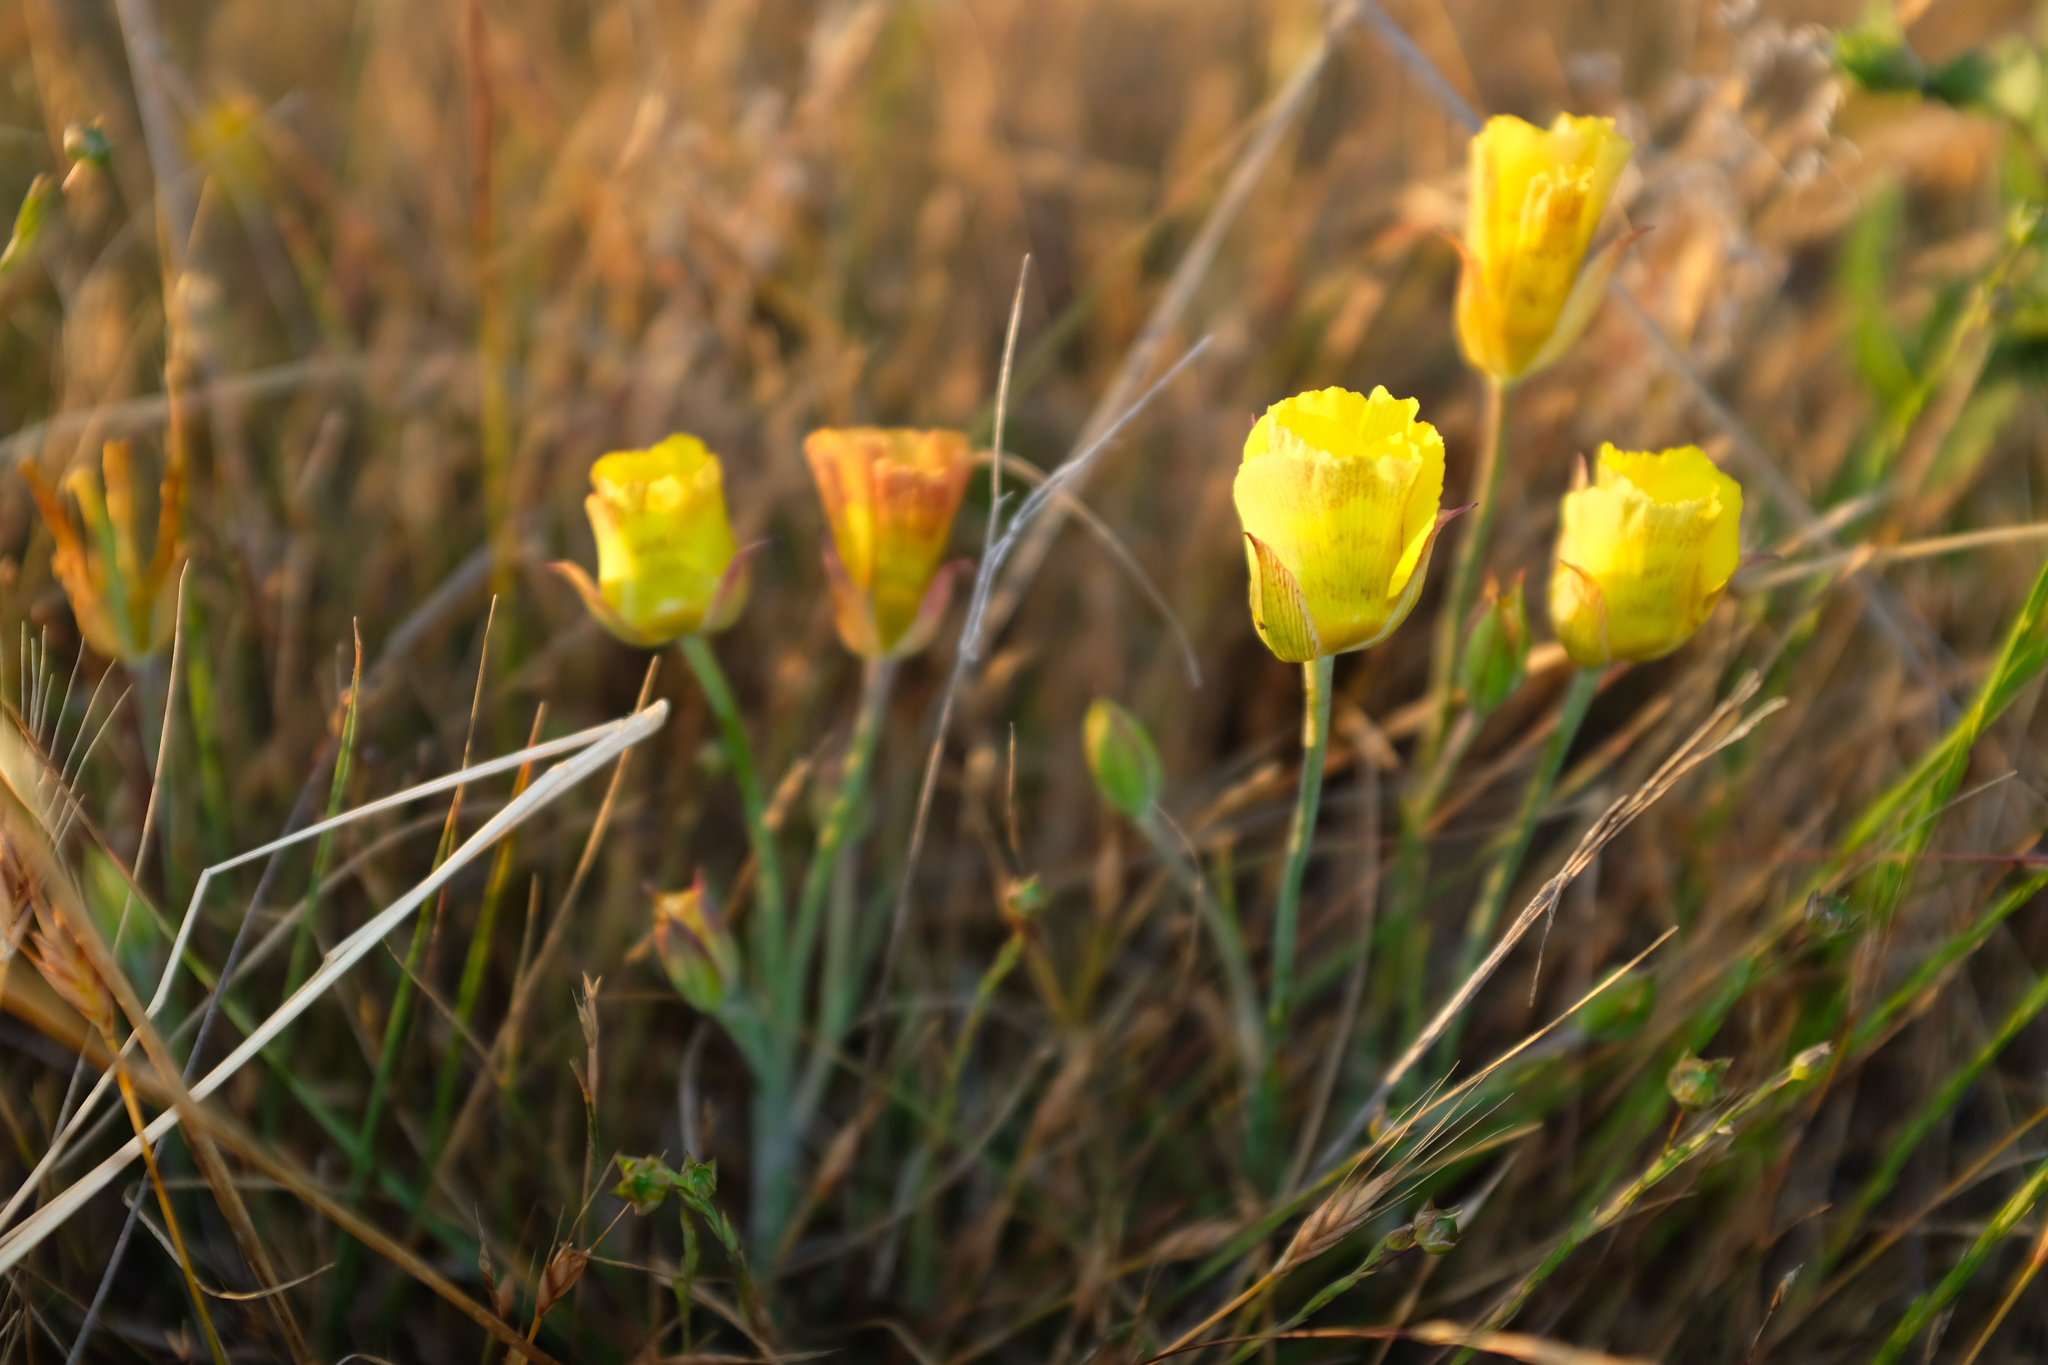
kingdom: Plantae
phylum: Tracheophyta
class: Liliopsida
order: Liliales
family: Liliaceae
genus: Calochortus
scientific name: Calochortus luteus
